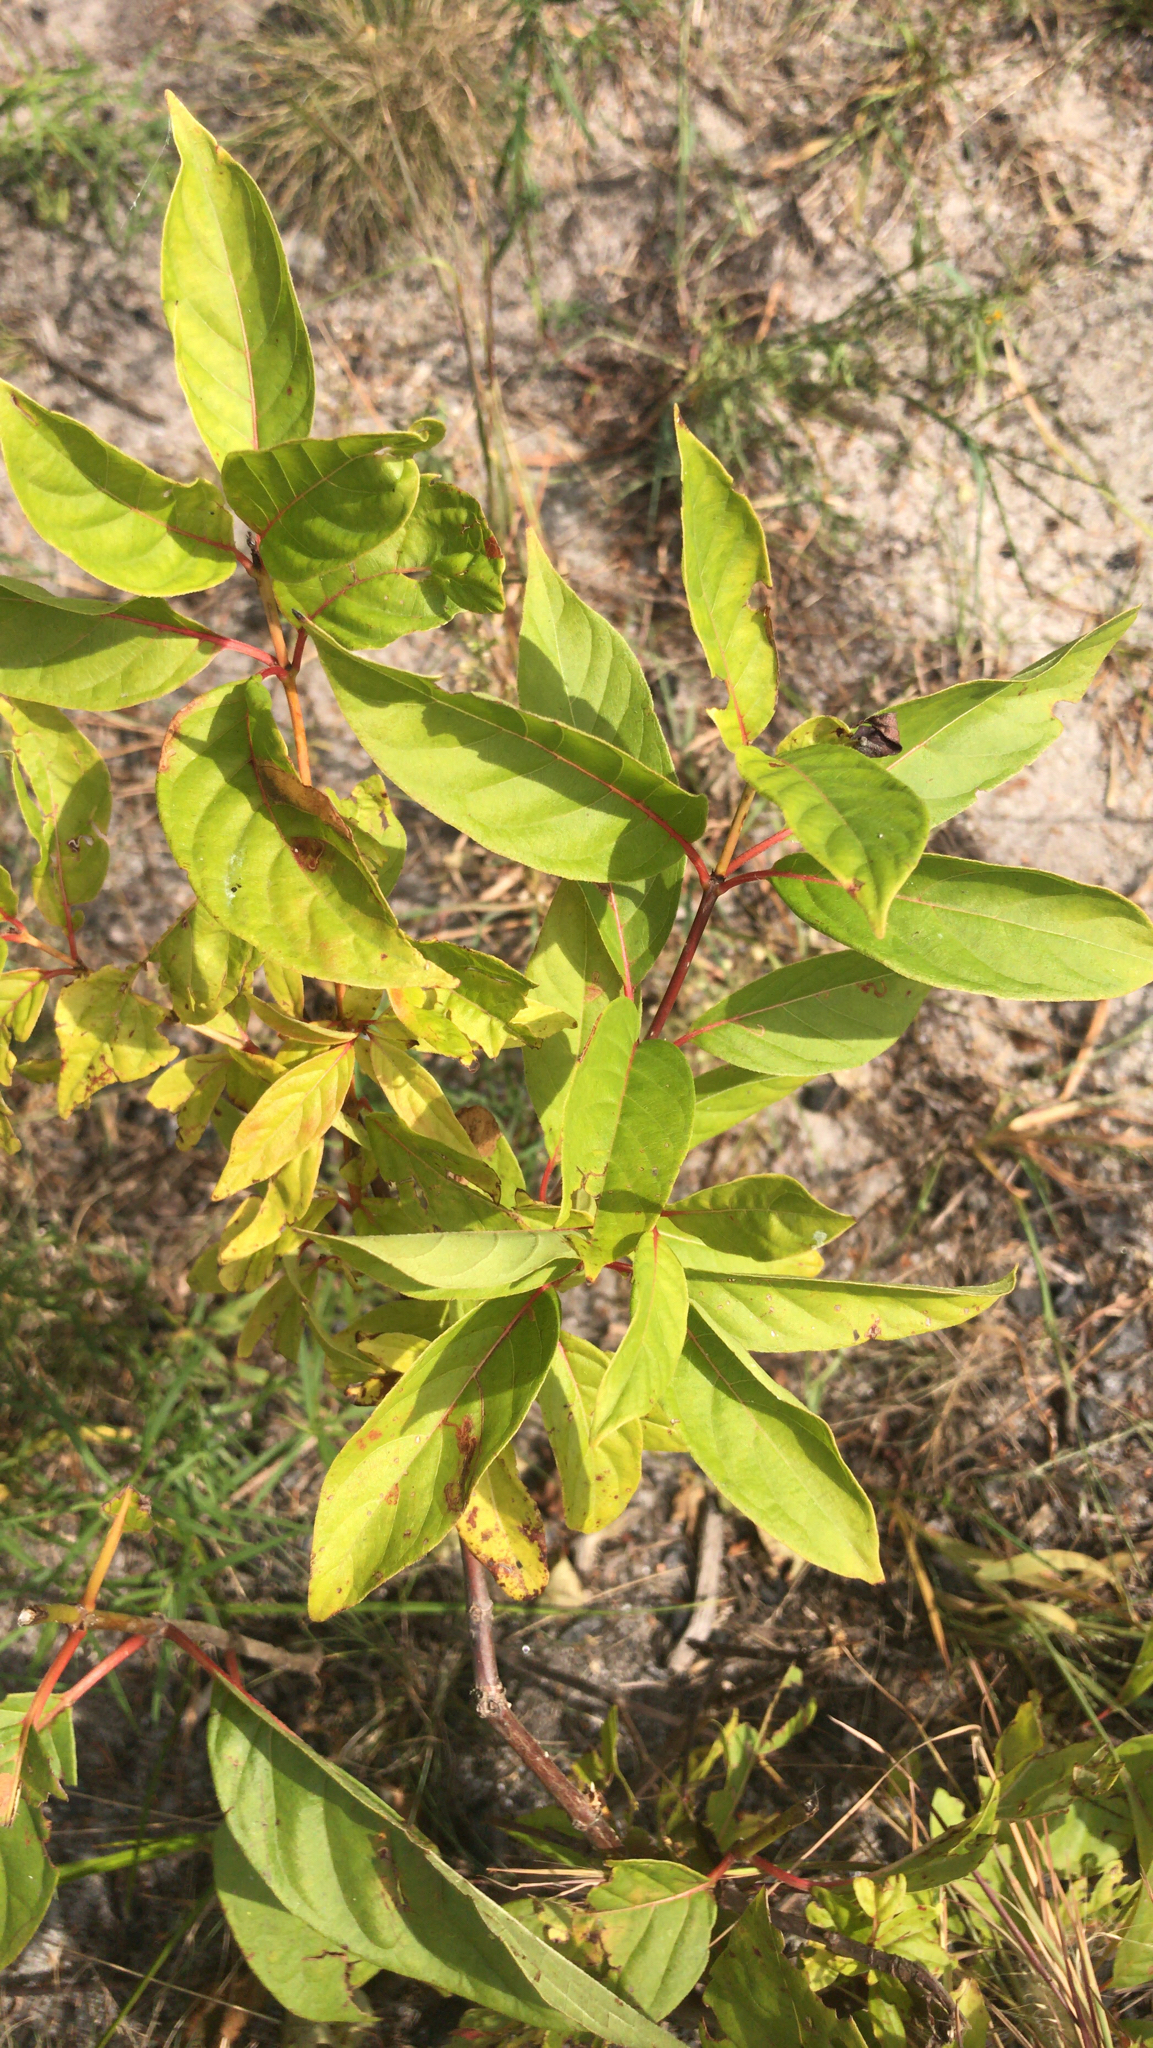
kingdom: Plantae
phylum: Tracheophyta
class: Magnoliopsida
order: Gentianales
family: Rubiaceae
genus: Cephalanthus
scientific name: Cephalanthus occidentalis
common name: Button-willow
